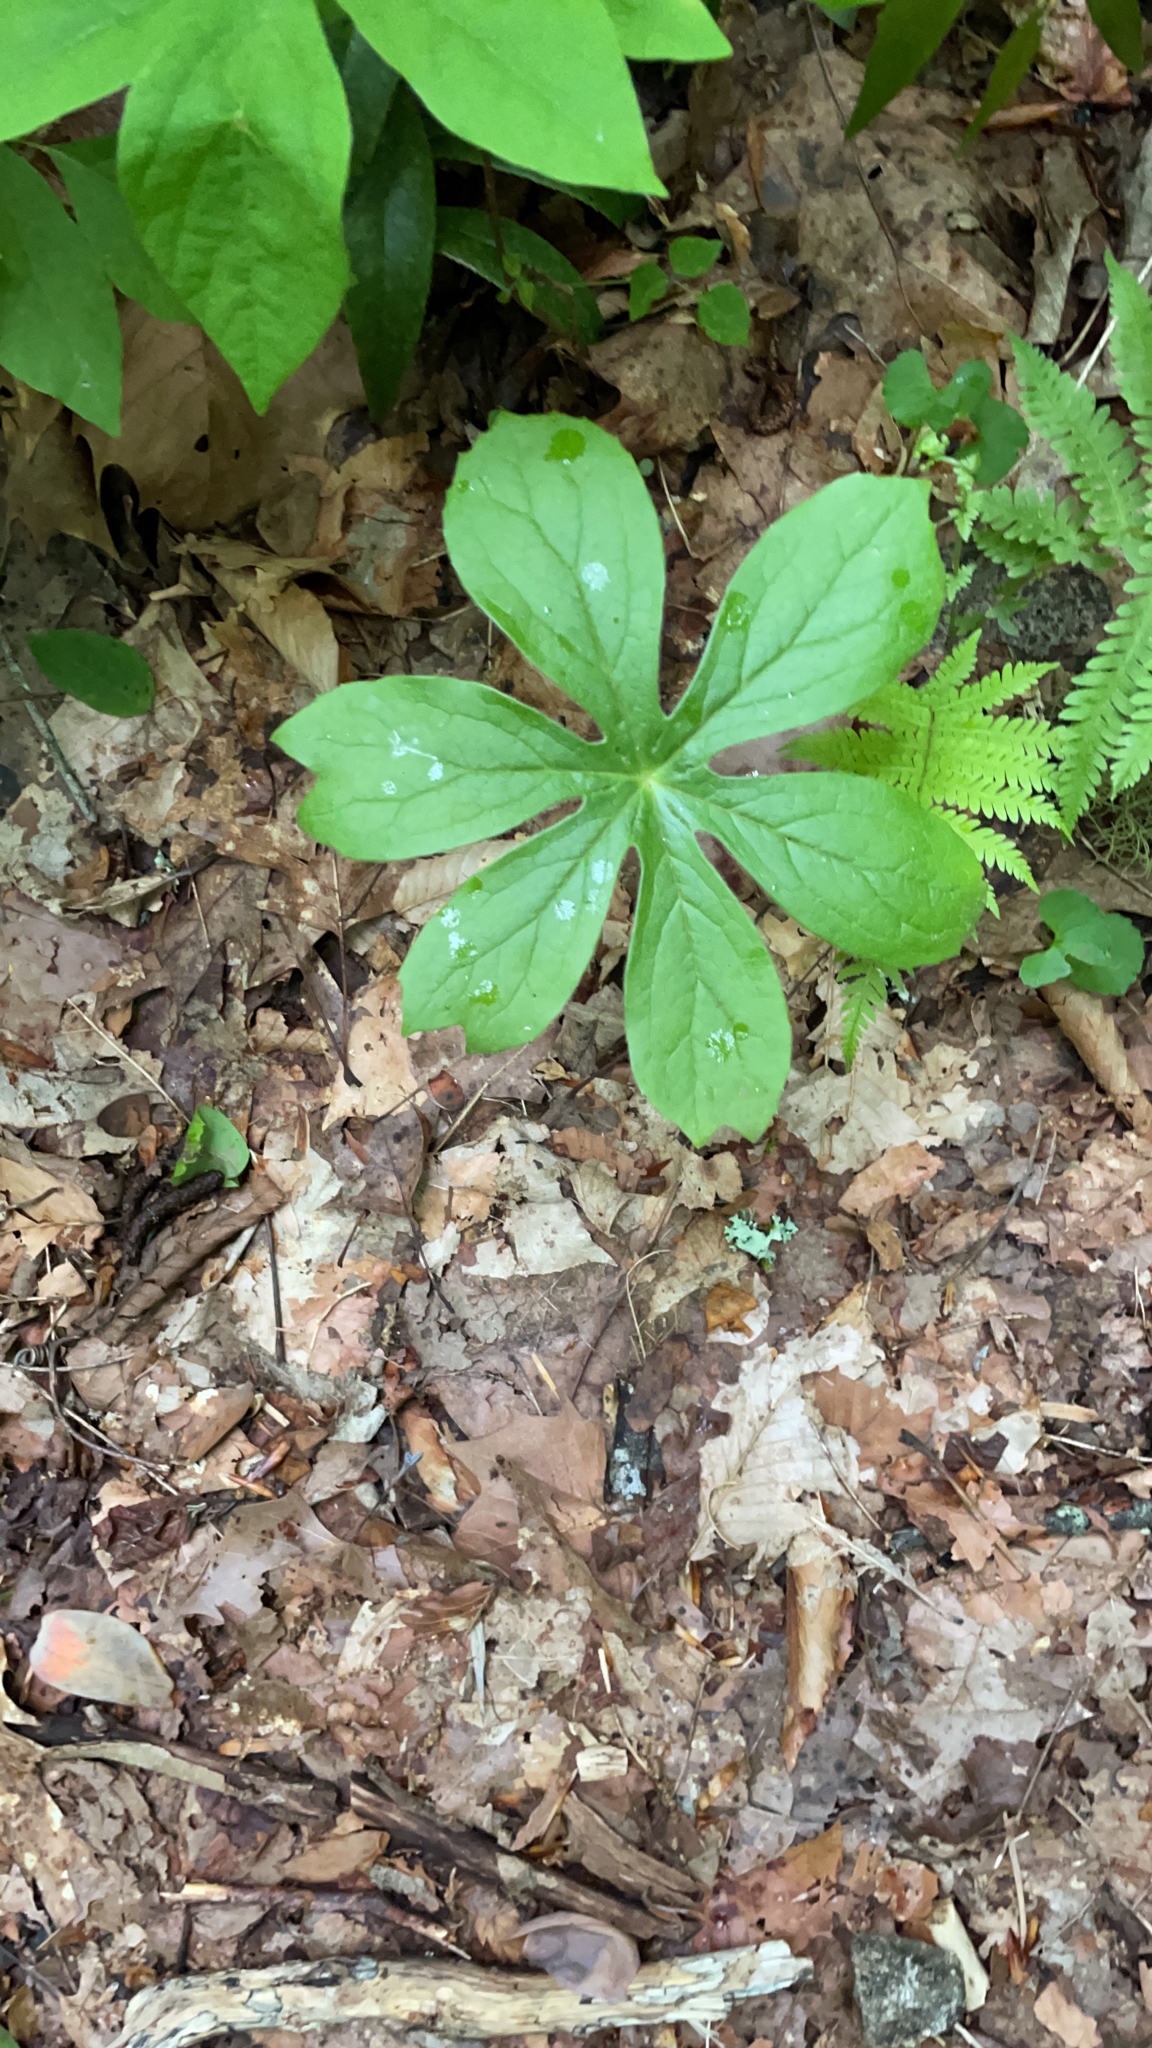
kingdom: Plantae
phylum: Tracheophyta
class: Magnoliopsida
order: Ranunculales
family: Berberidaceae
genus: Podophyllum
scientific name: Podophyllum peltatum
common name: Wild mandrake
